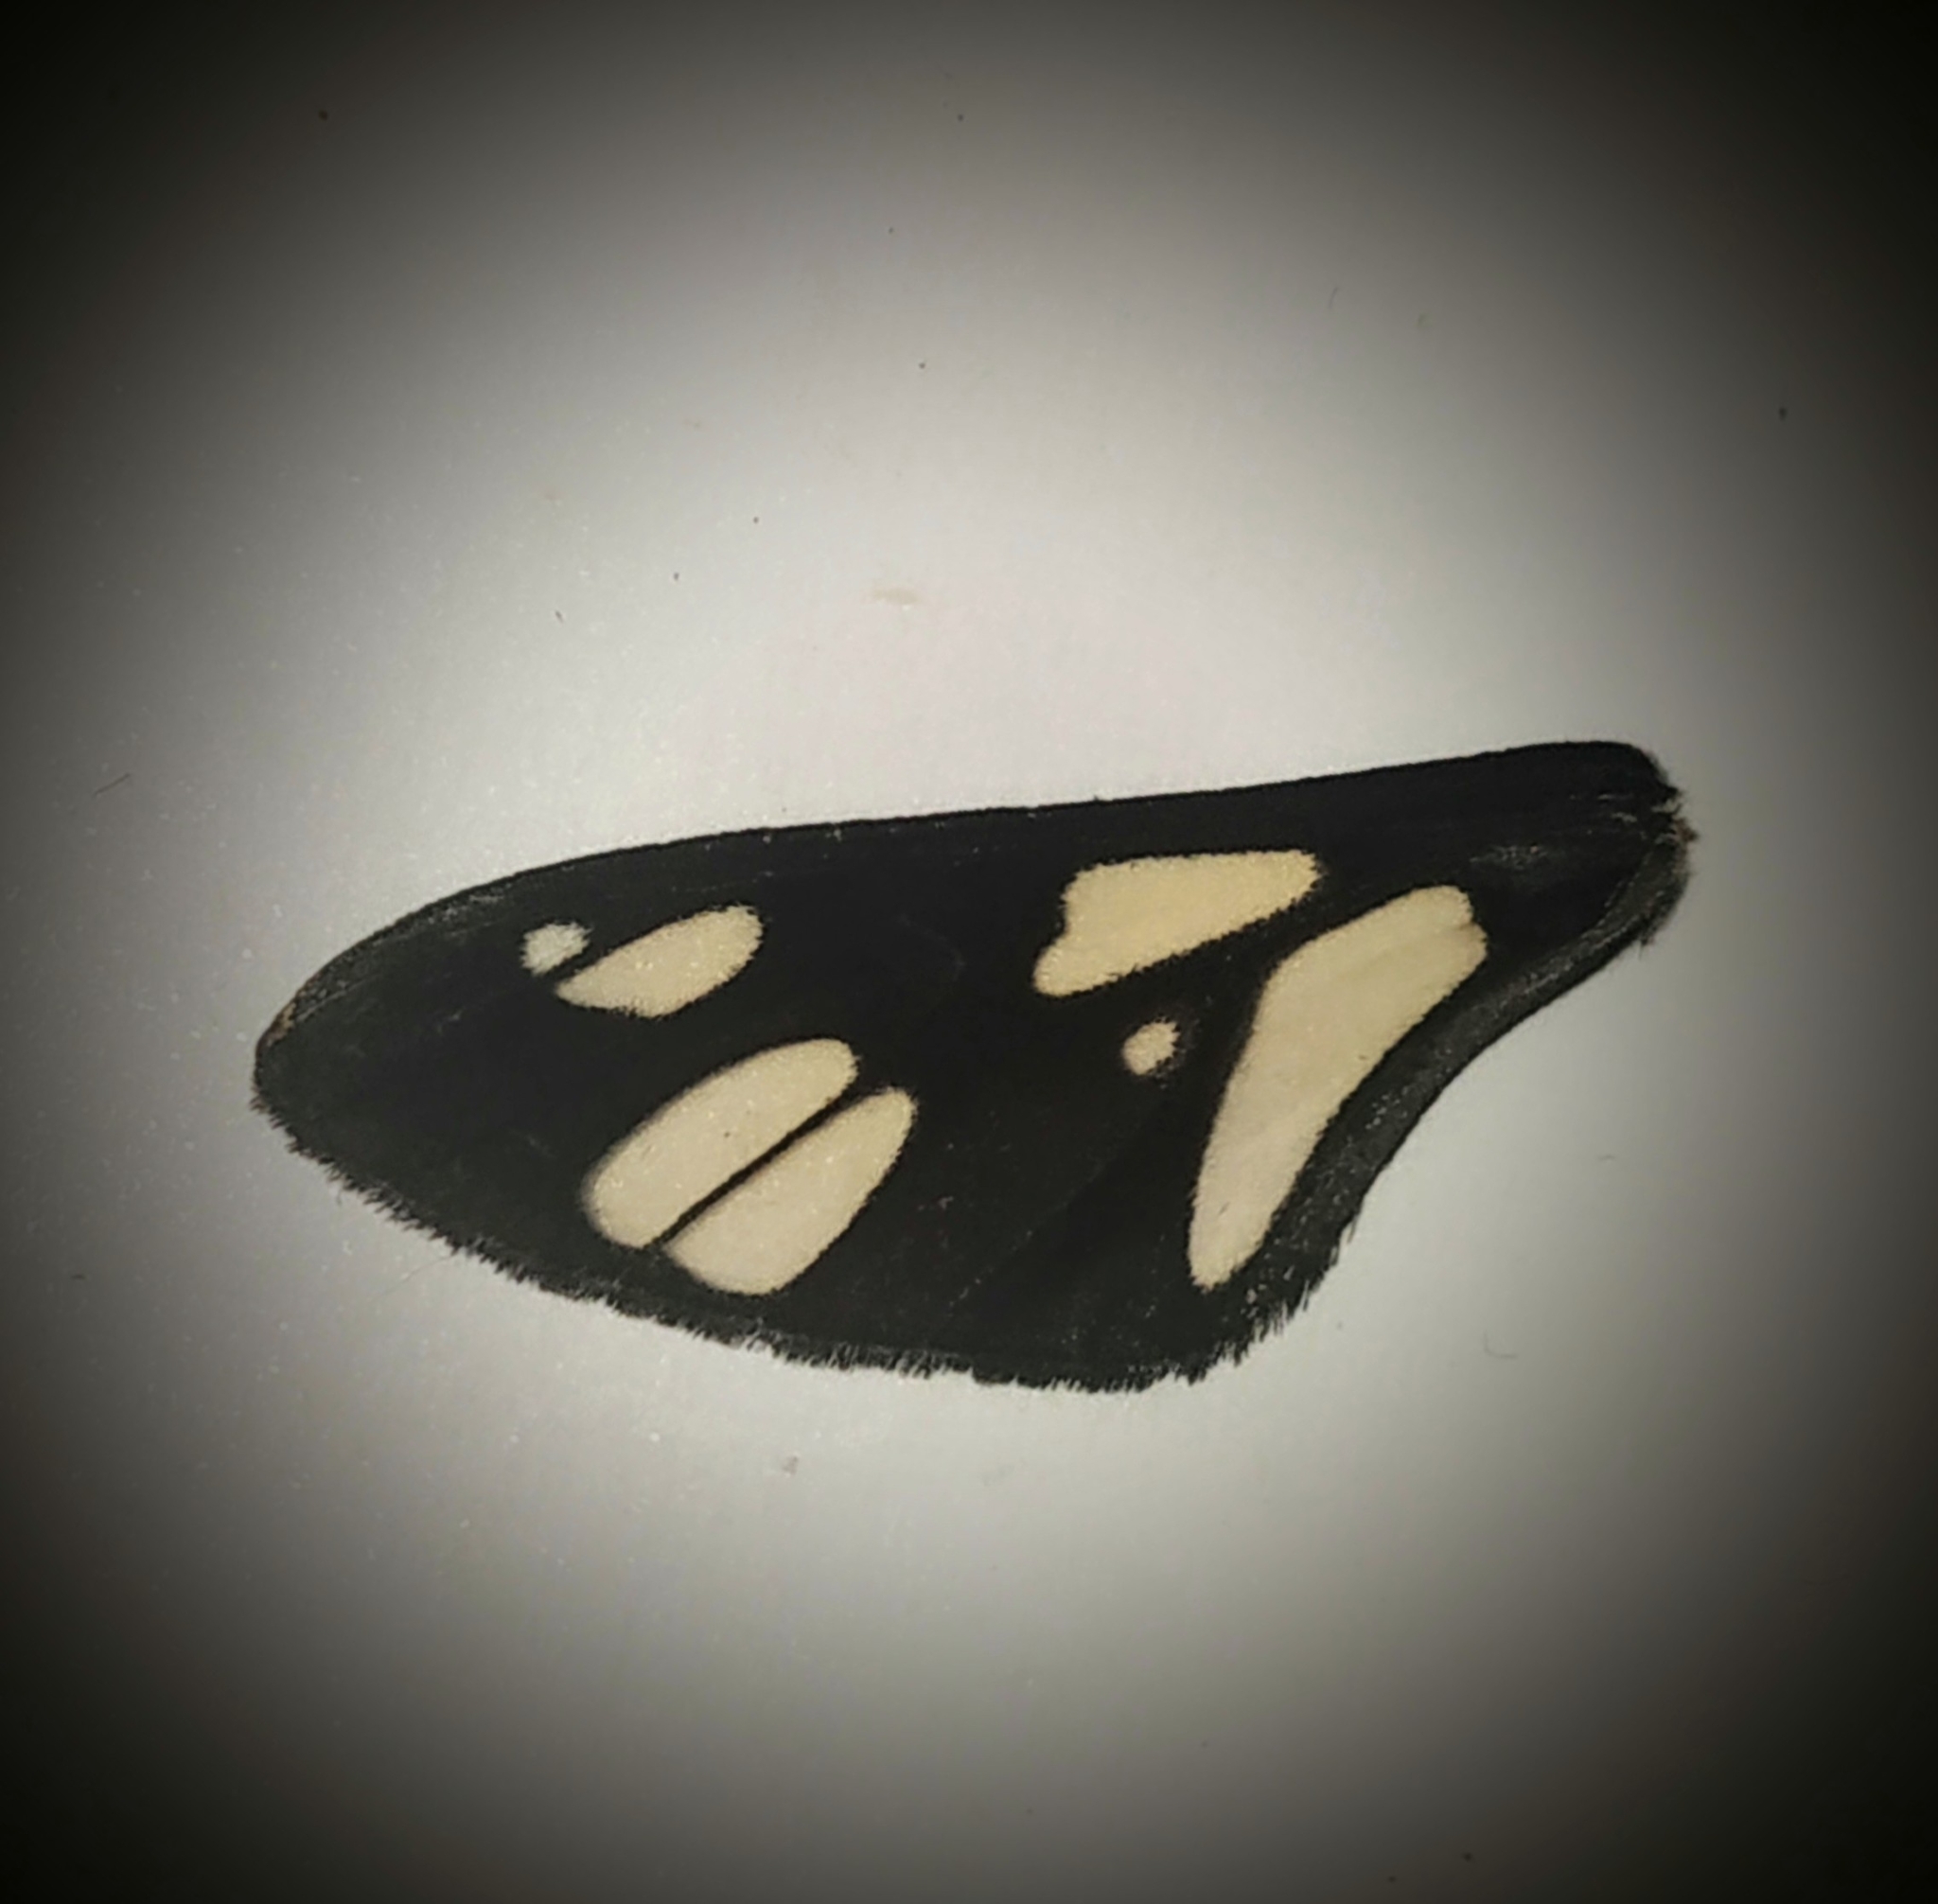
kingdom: Animalia
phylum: Arthropoda
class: Insecta
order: Lepidoptera
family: Erebidae
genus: Syntomoides
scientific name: Syntomoides imaon
